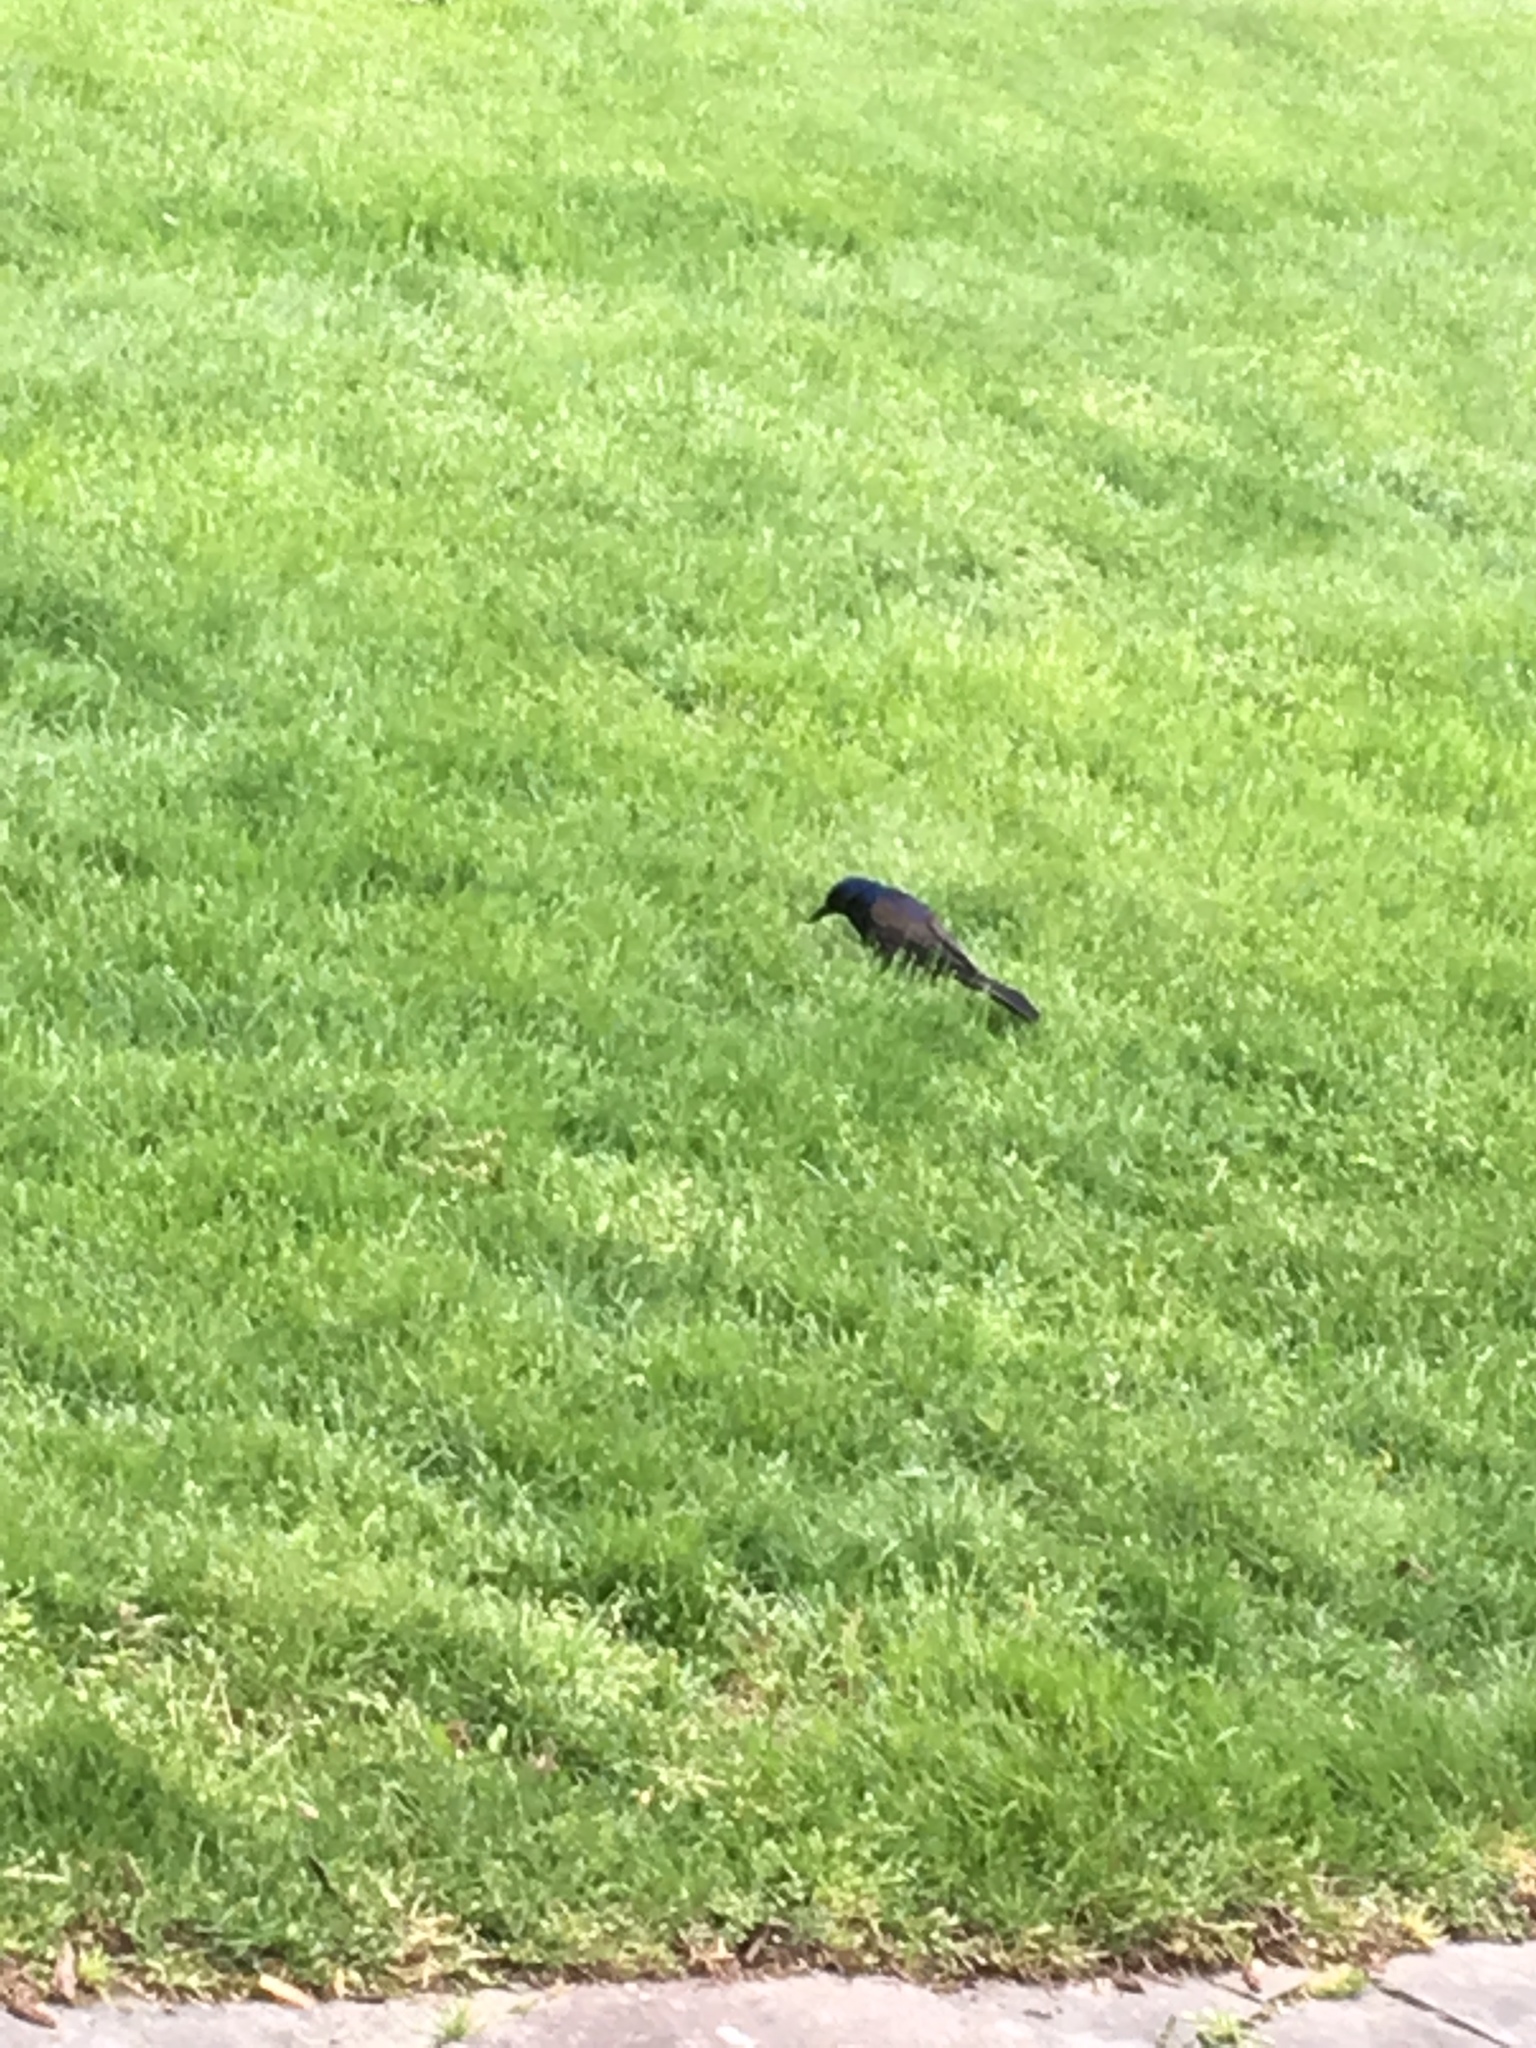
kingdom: Animalia
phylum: Chordata
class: Aves
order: Passeriformes
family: Icteridae
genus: Quiscalus
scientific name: Quiscalus quiscula
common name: Common grackle
